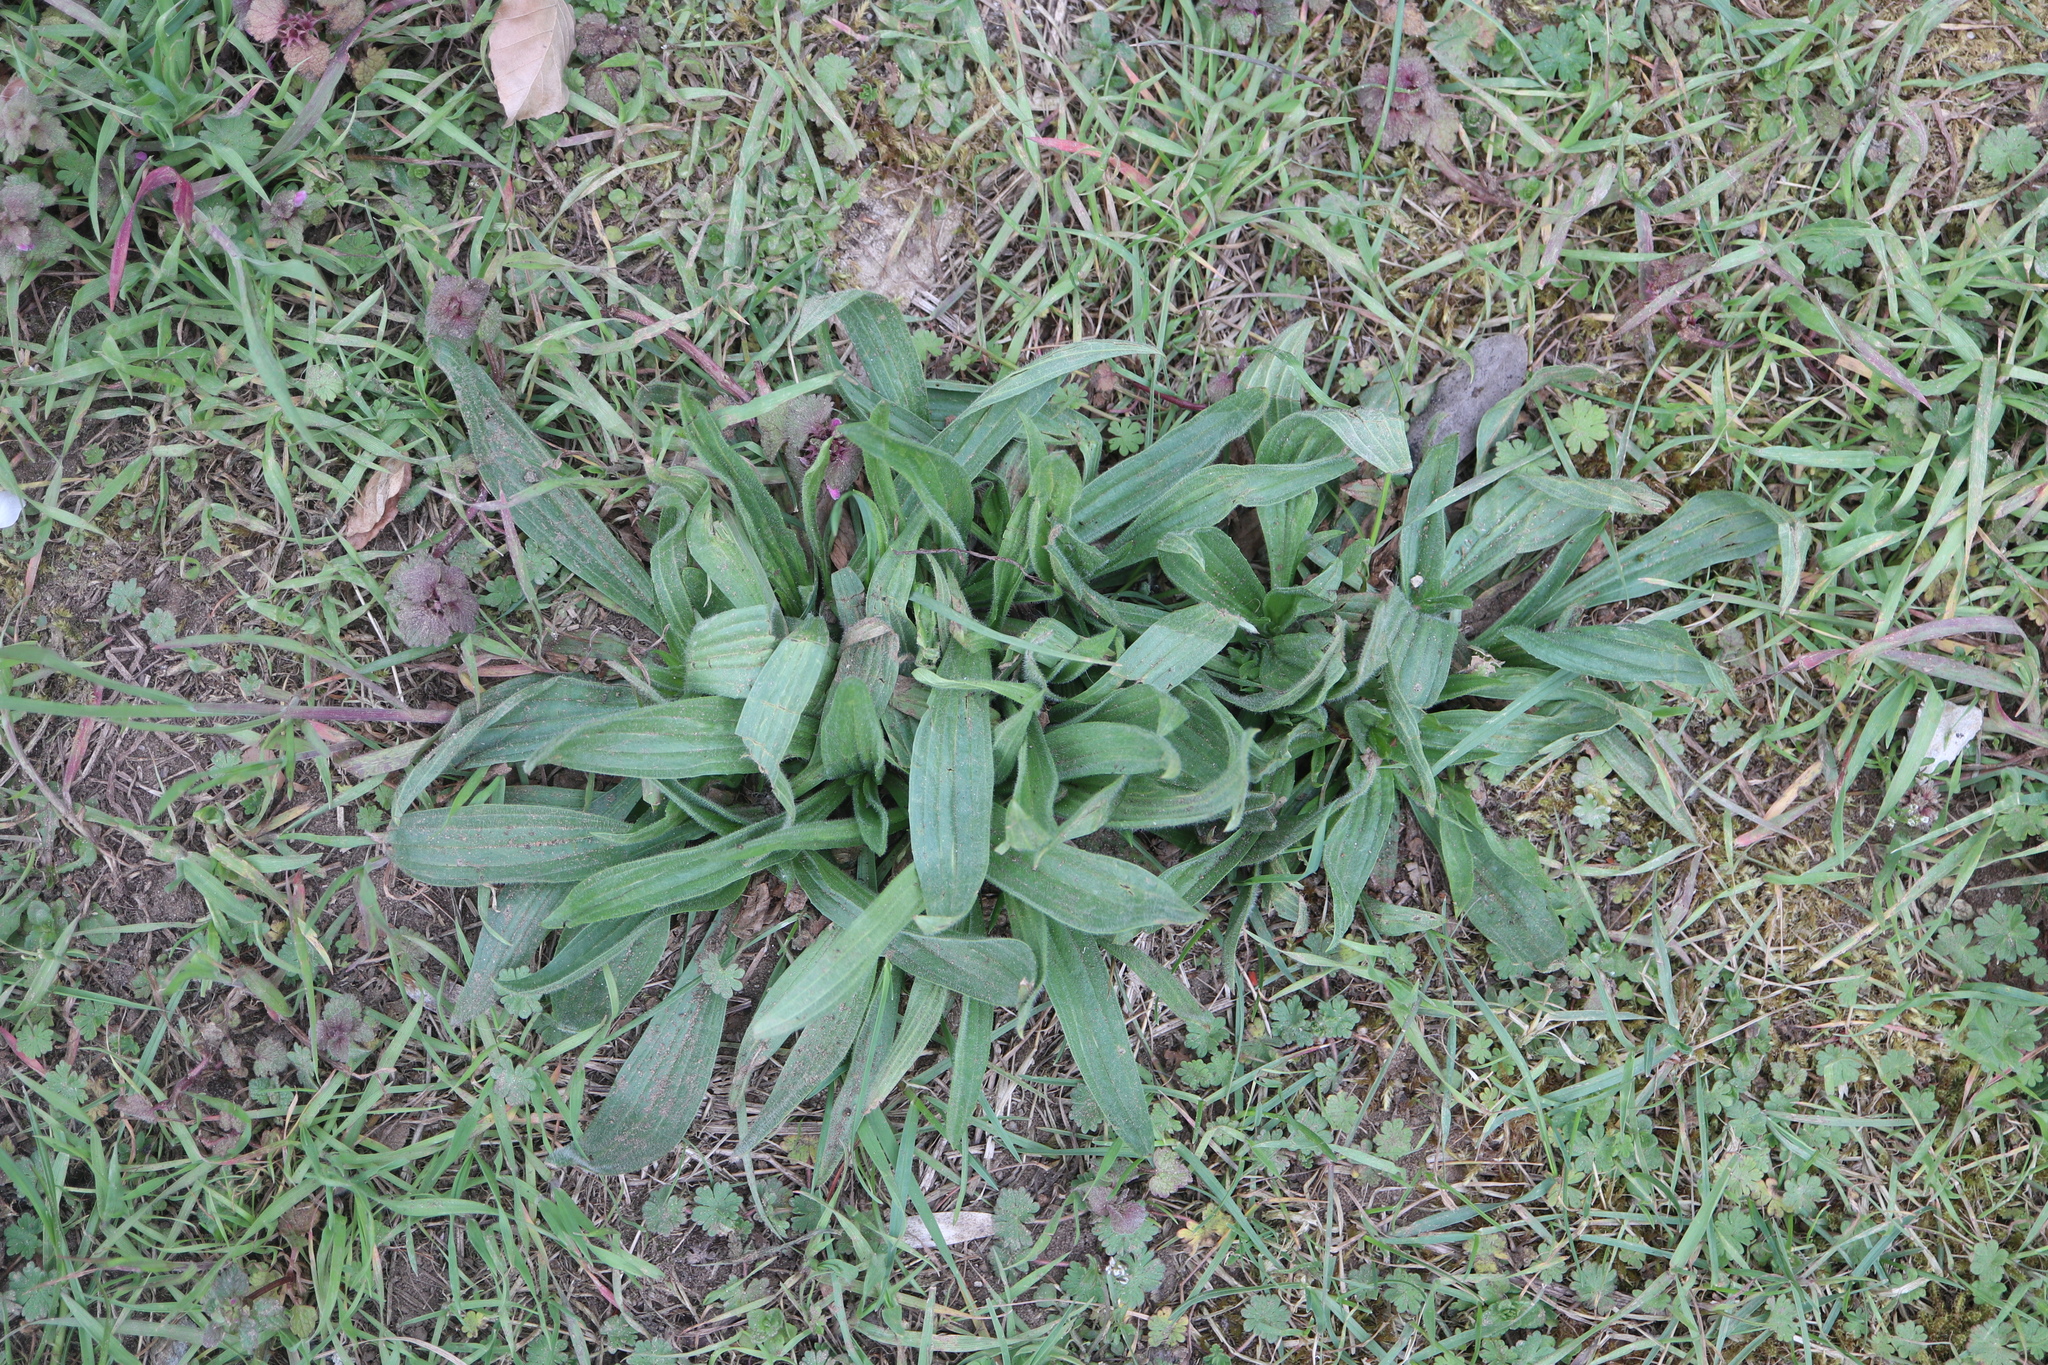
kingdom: Plantae
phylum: Tracheophyta
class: Magnoliopsida
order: Lamiales
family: Plantaginaceae
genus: Plantago
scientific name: Plantago lanceolata
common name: Ribwort plantain
